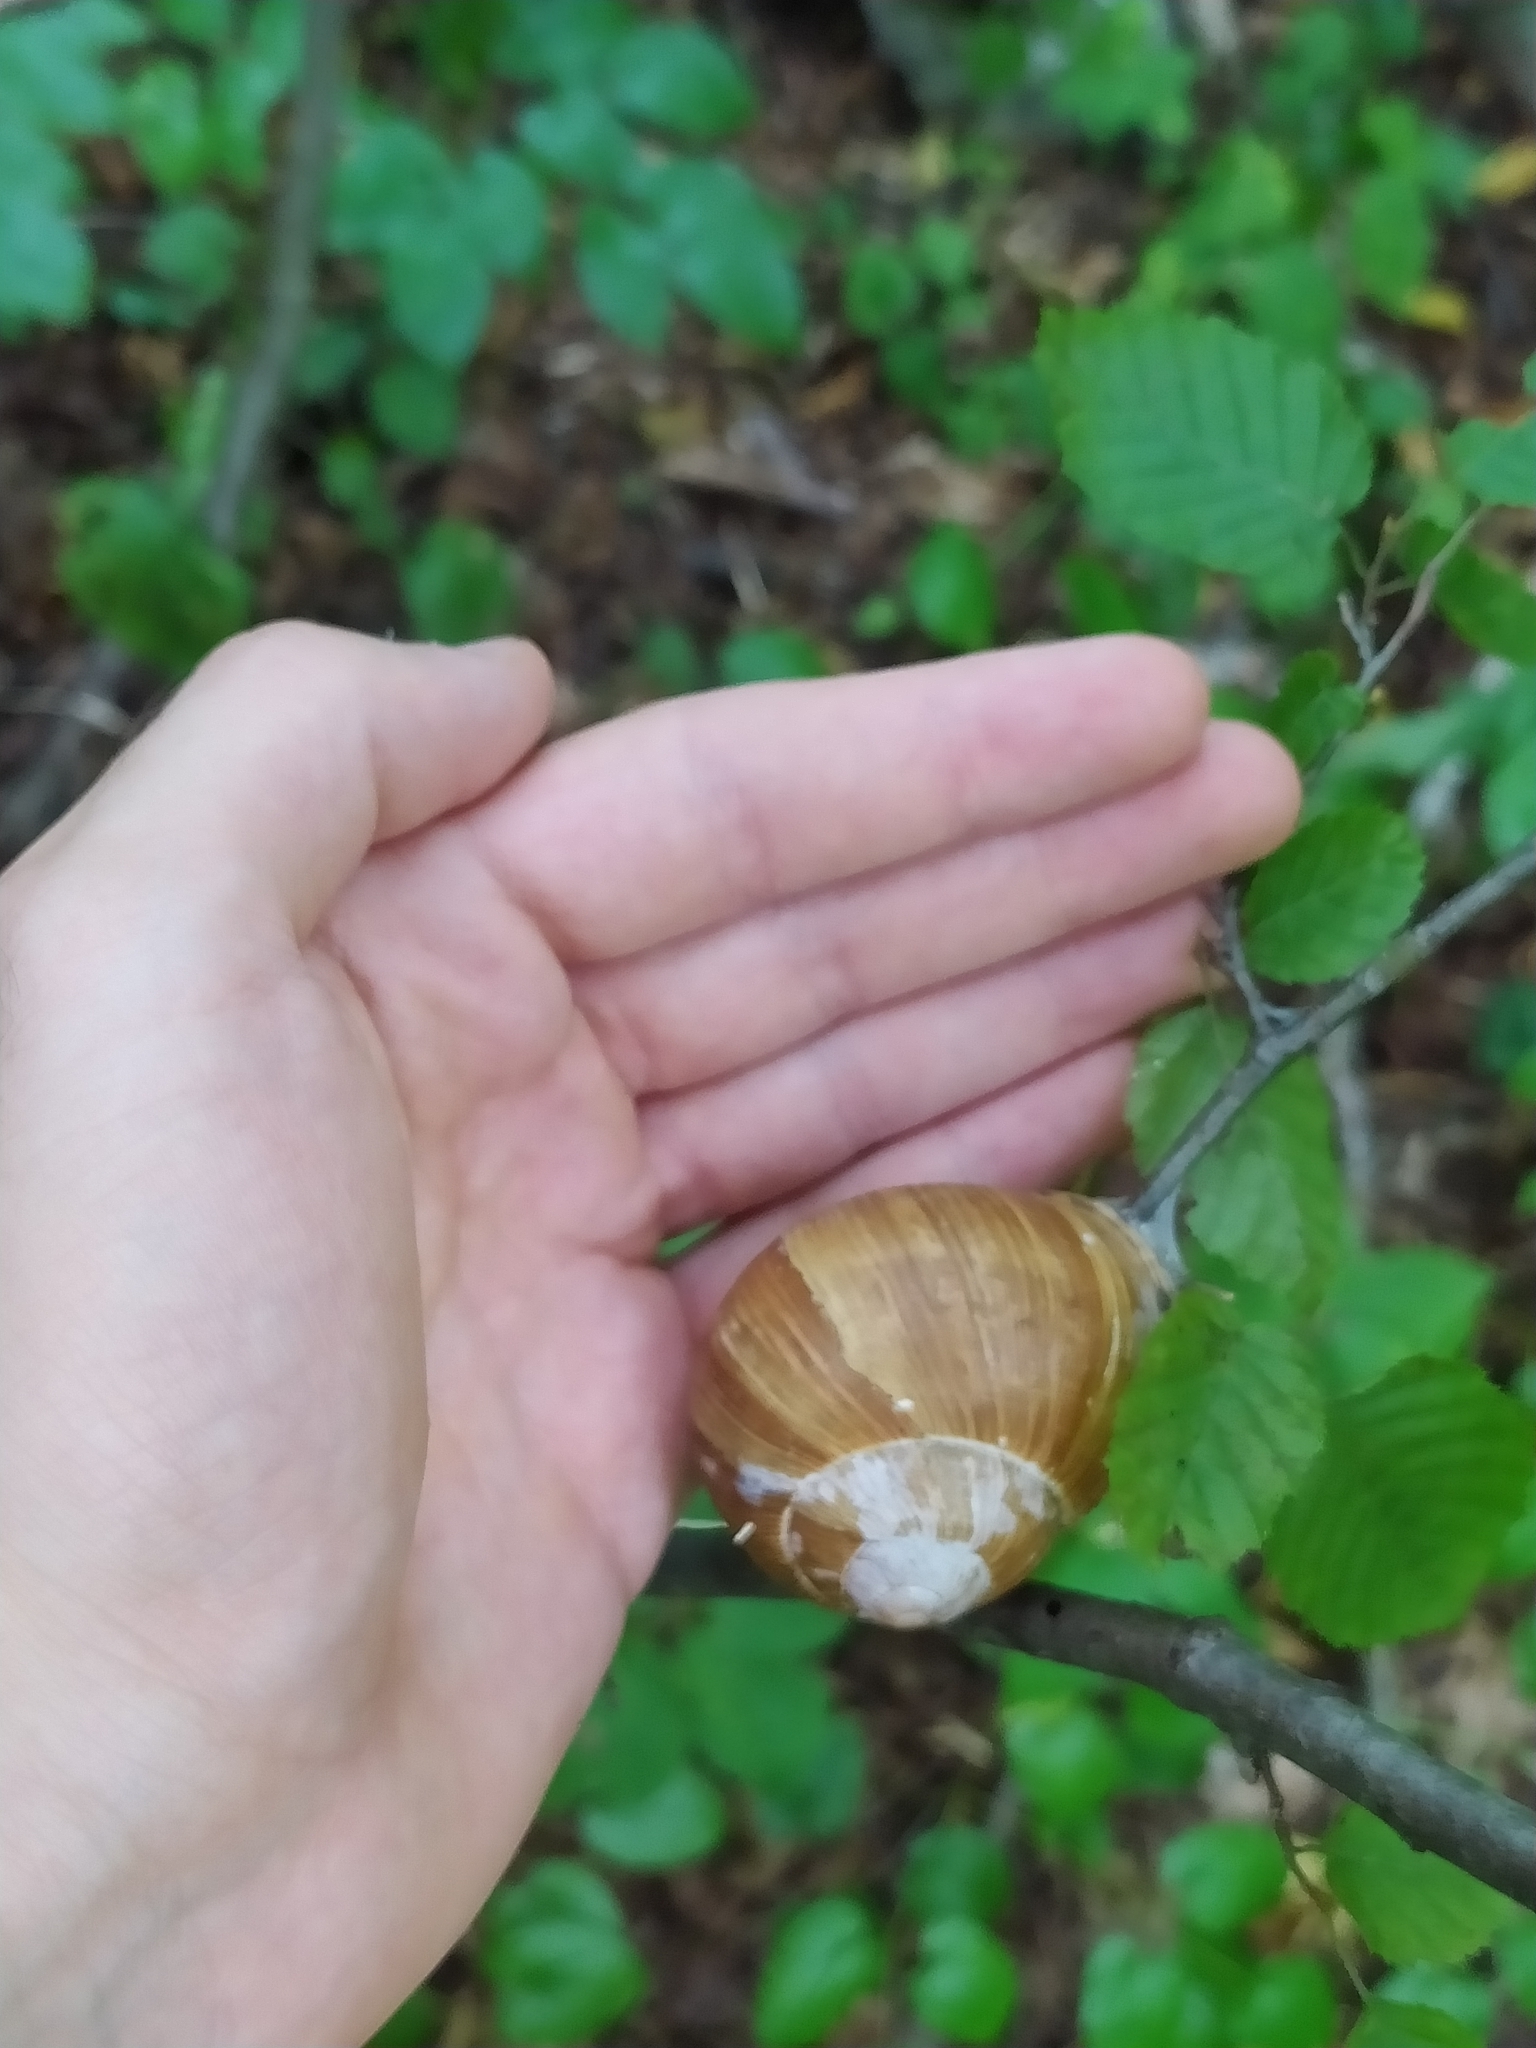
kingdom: Animalia
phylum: Mollusca
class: Gastropoda
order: Stylommatophora
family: Helicidae
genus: Helix
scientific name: Helix pomatia
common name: Roman snail
